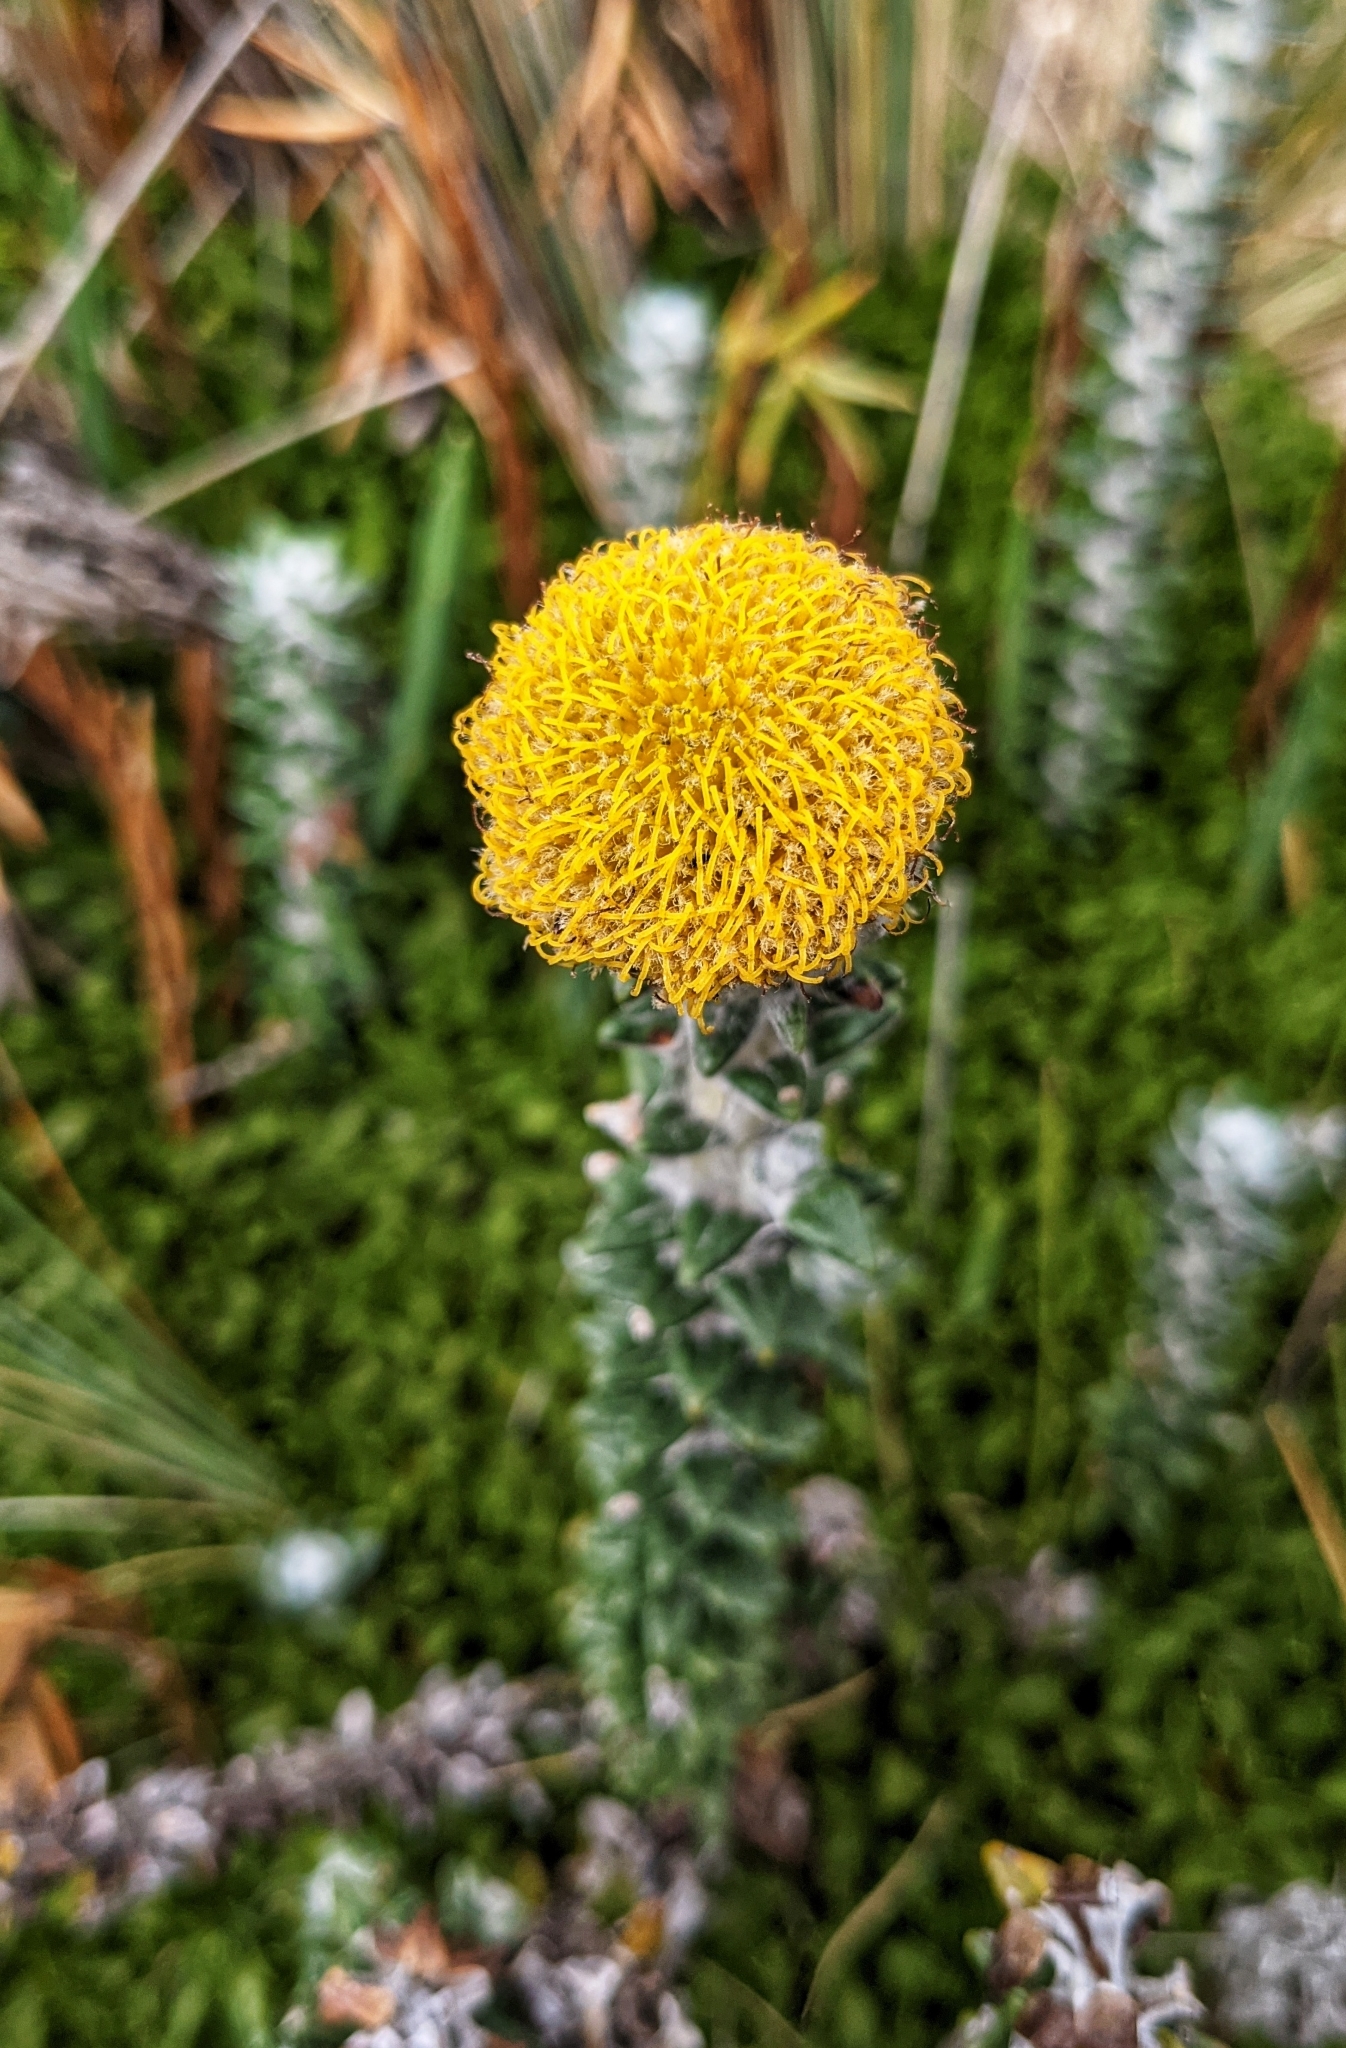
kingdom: Plantae
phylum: Tracheophyta
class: Magnoliopsida
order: Asterales
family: Asteraceae
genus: Lasiocephalus
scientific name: Lasiocephalus ovatus
